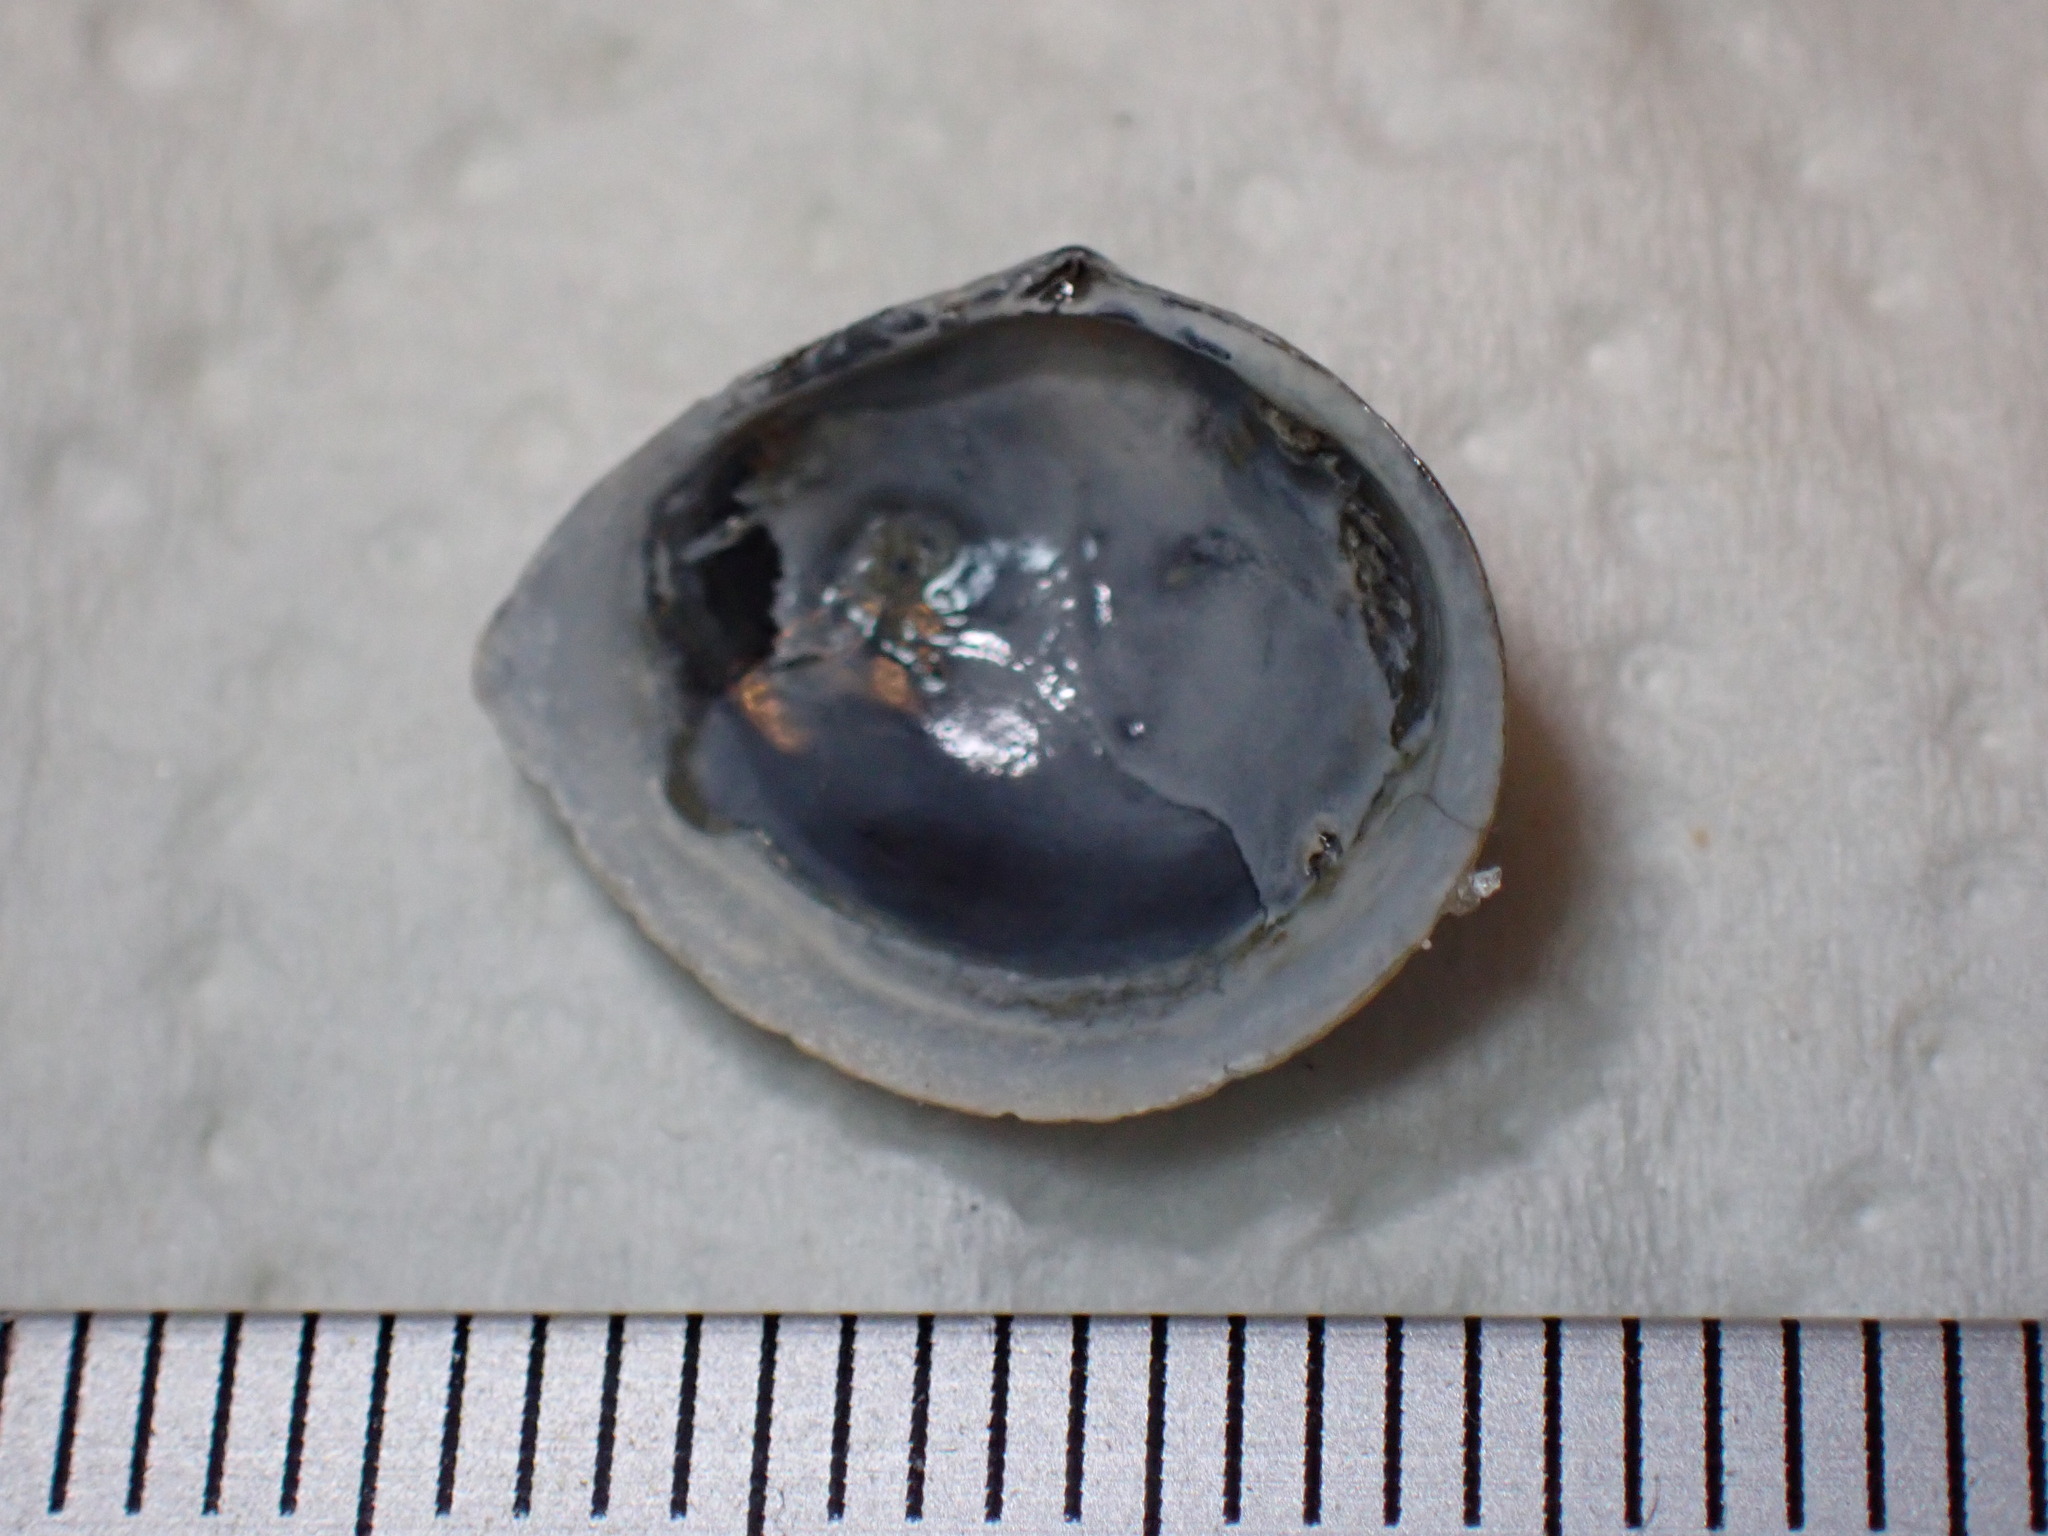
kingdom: Animalia
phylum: Mollusca
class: Bivalvia
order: Cardiida
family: Tellinidae
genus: Macoma
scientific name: Macoma balthica
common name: Baltic tellin
